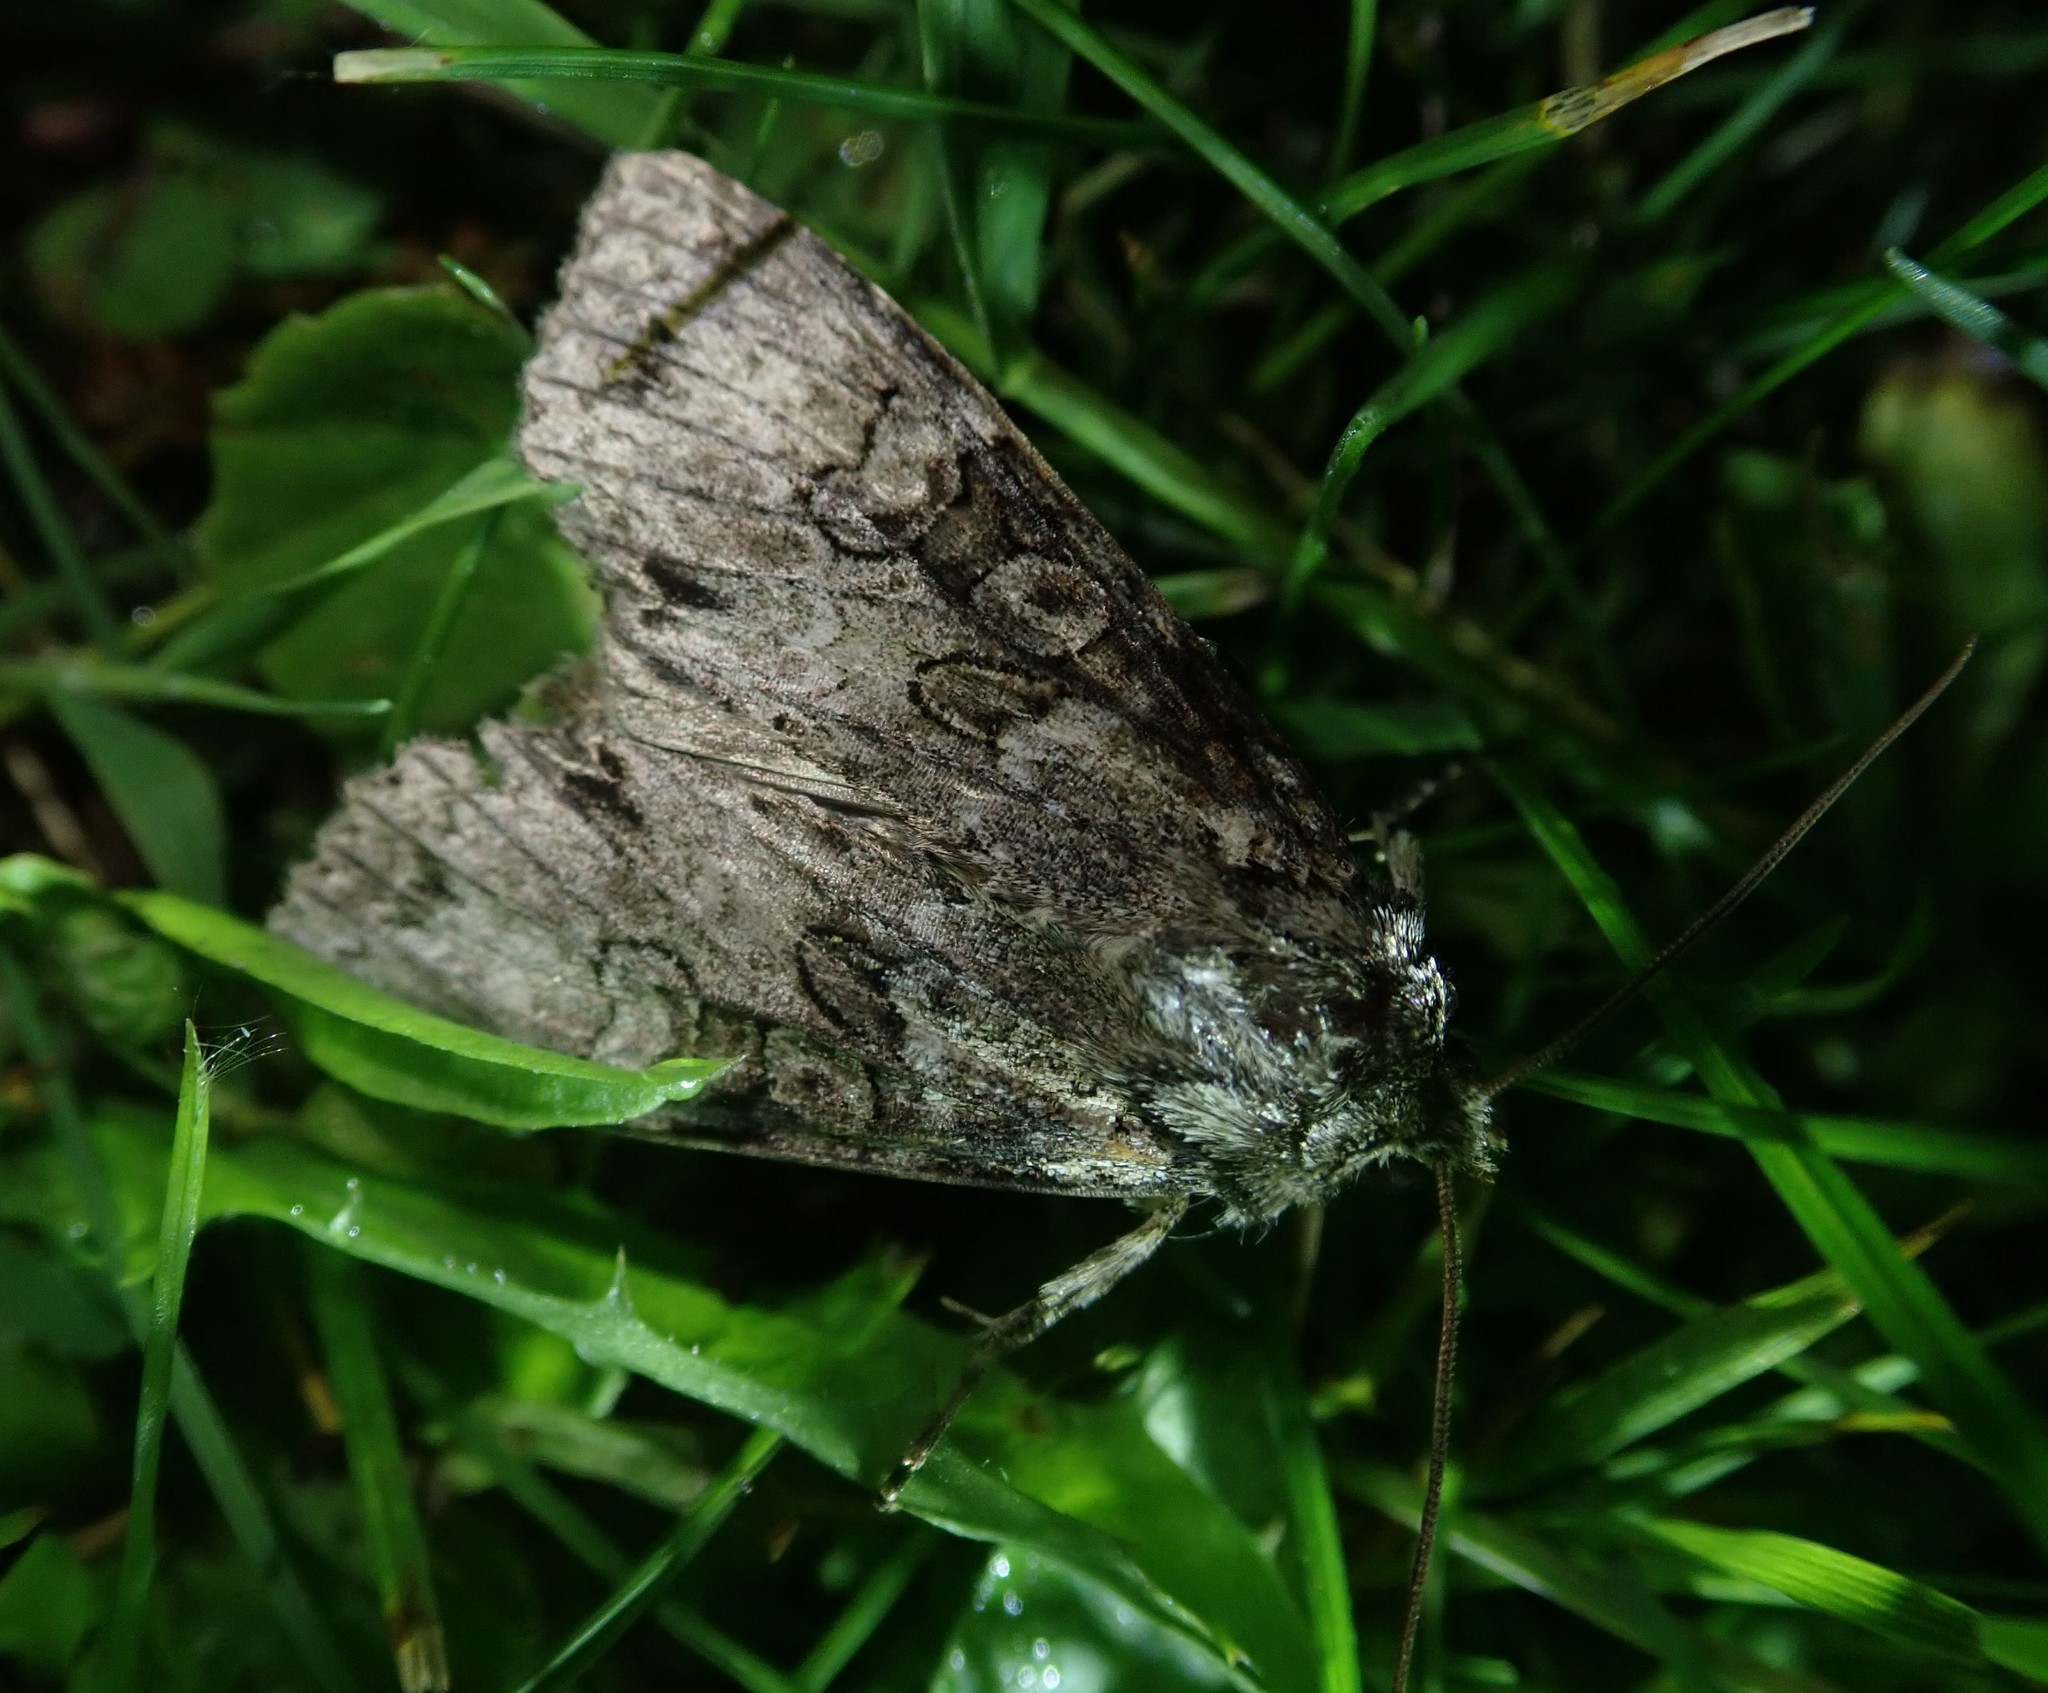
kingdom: Animalia
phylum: Arthropoda
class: Insecta
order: Lepidoptera
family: Noctuidae
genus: Polia
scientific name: Polia nebulosa
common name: Grey arches
